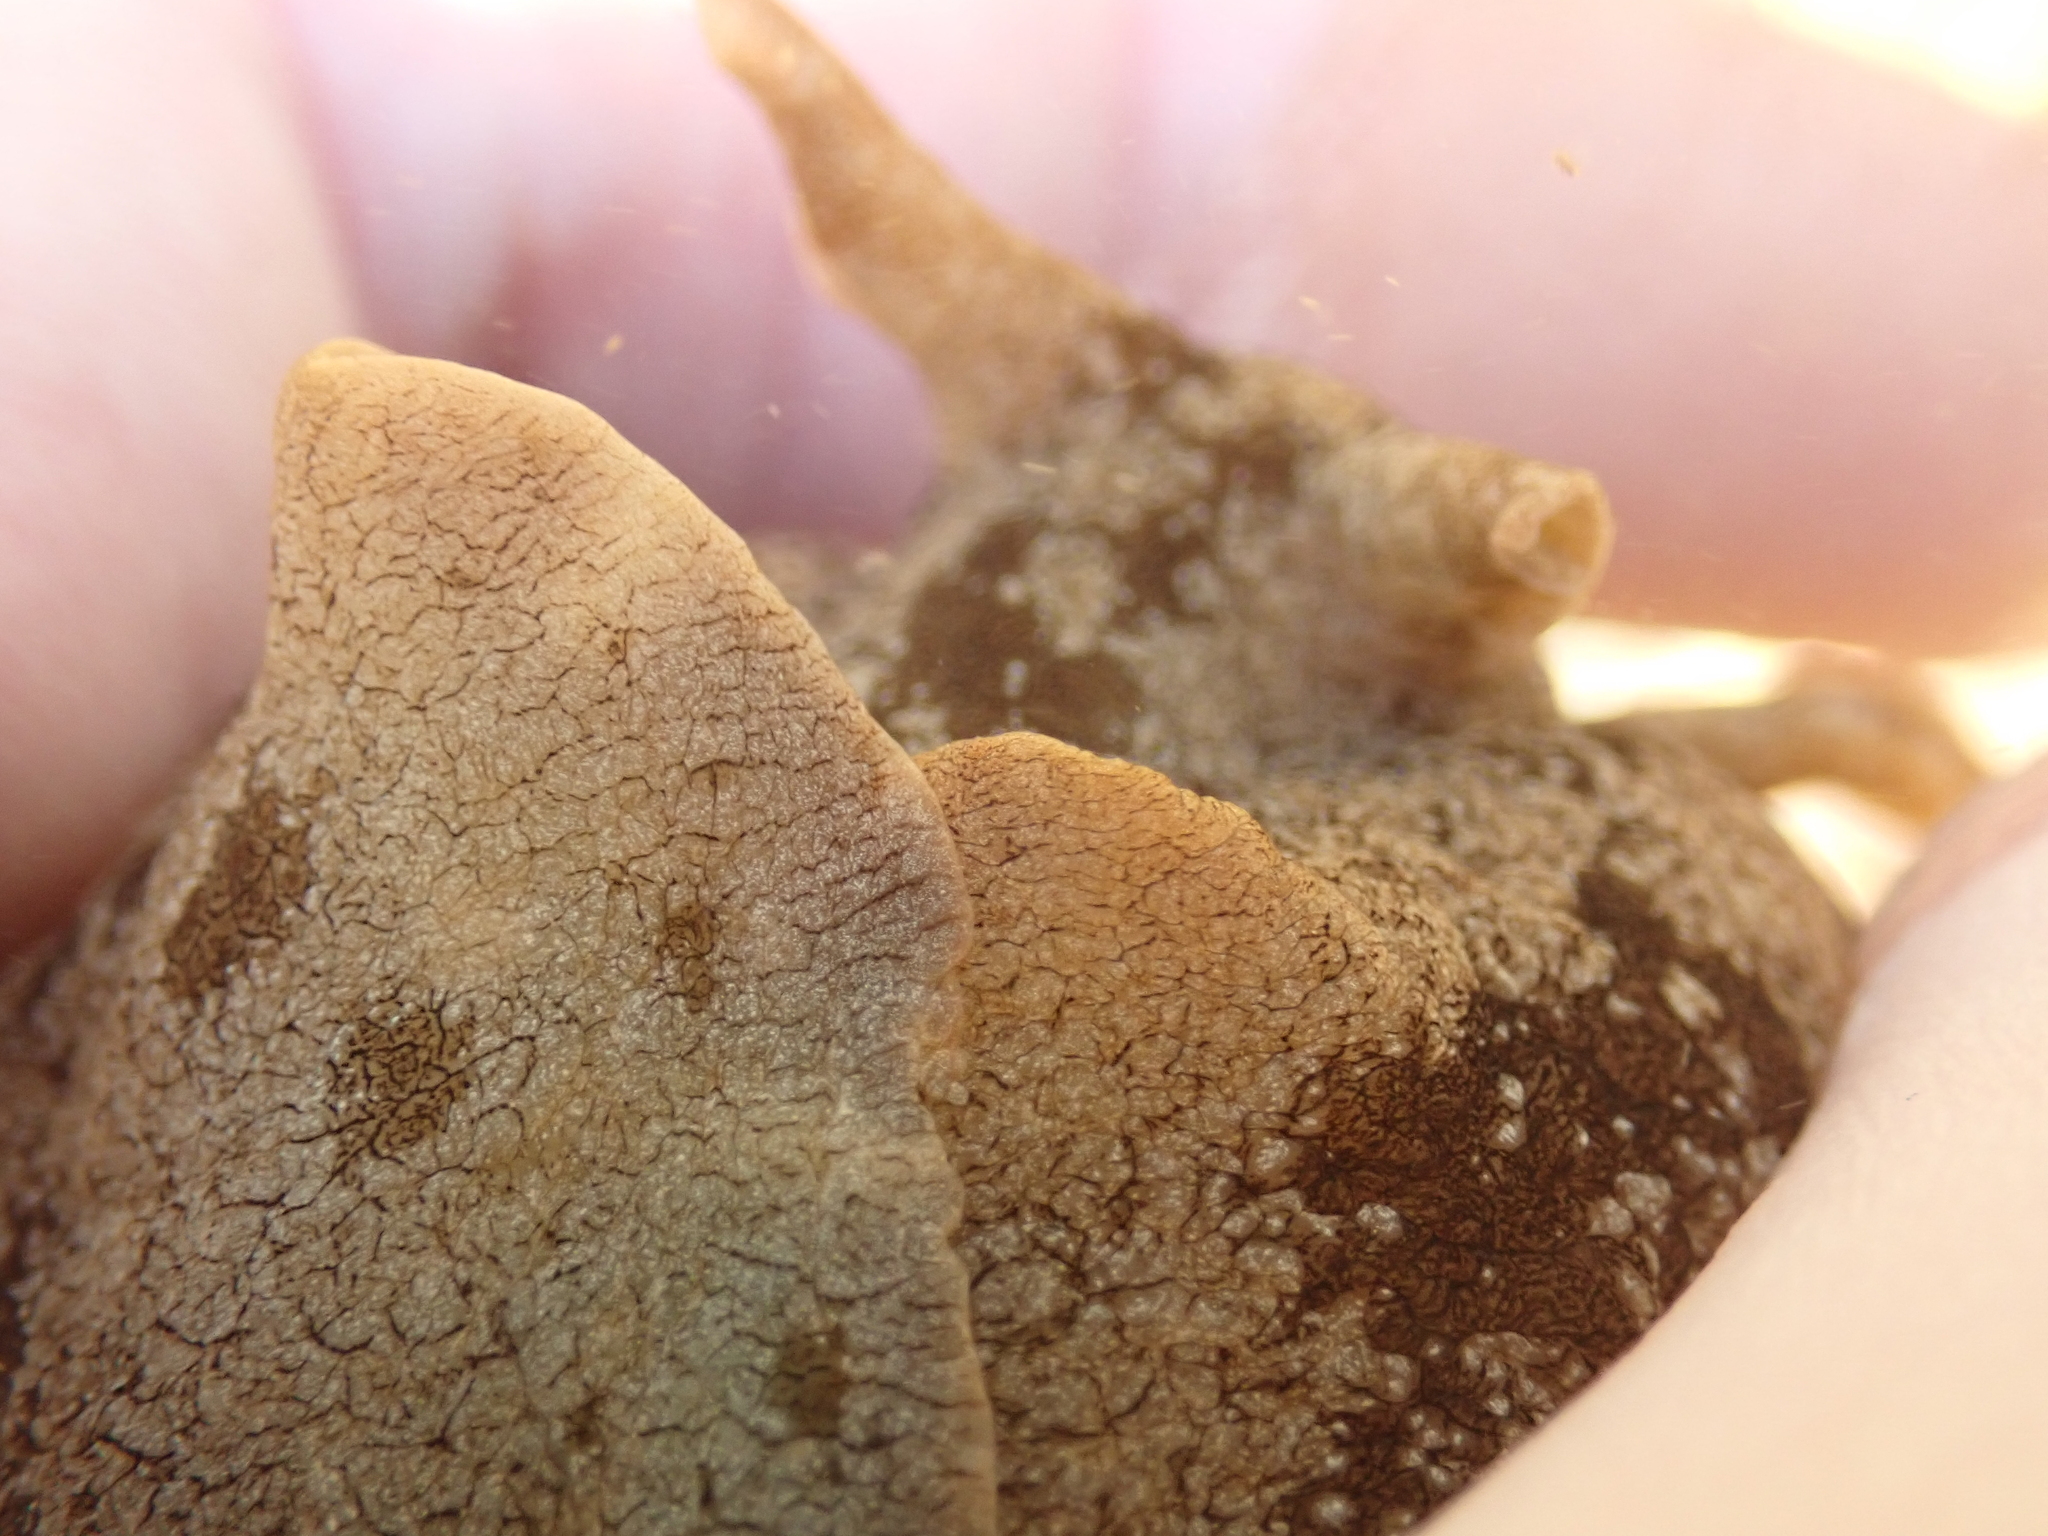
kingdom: Animalia
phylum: Mollusca
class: Gastropoda
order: Aplysiida
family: Aplysiidae
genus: Aplysia
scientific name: Aplysia juliana
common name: Walking sea hare
